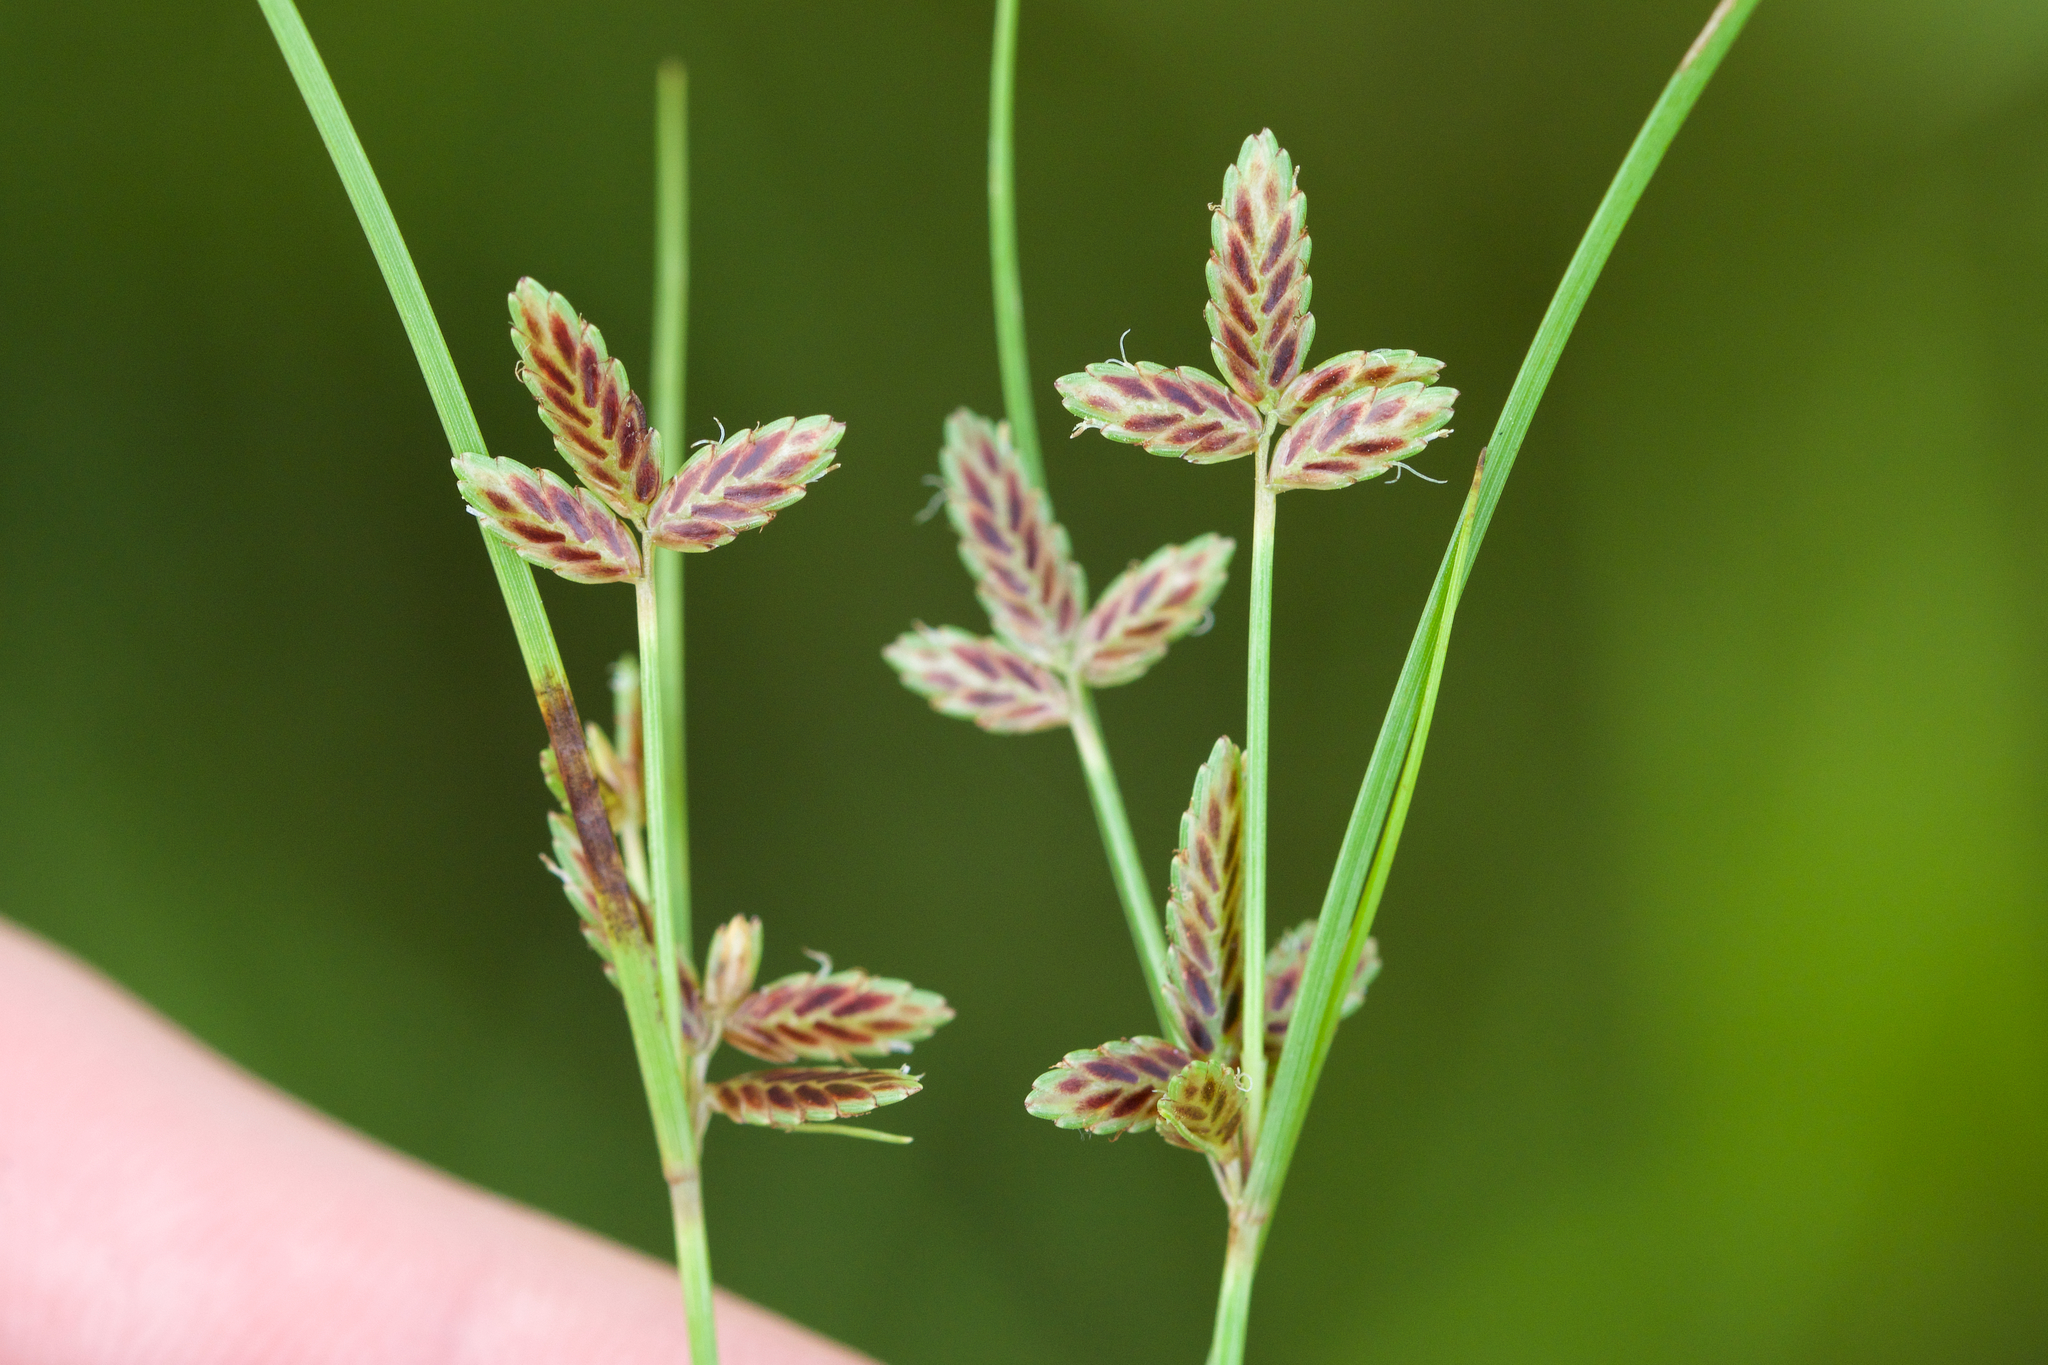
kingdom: Plantae
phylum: Tracheophyta
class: Liliopsida
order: Poales
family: Cyperaceae
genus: Cyperus
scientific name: Cyperus bipartitus
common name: Brook flatsedge
